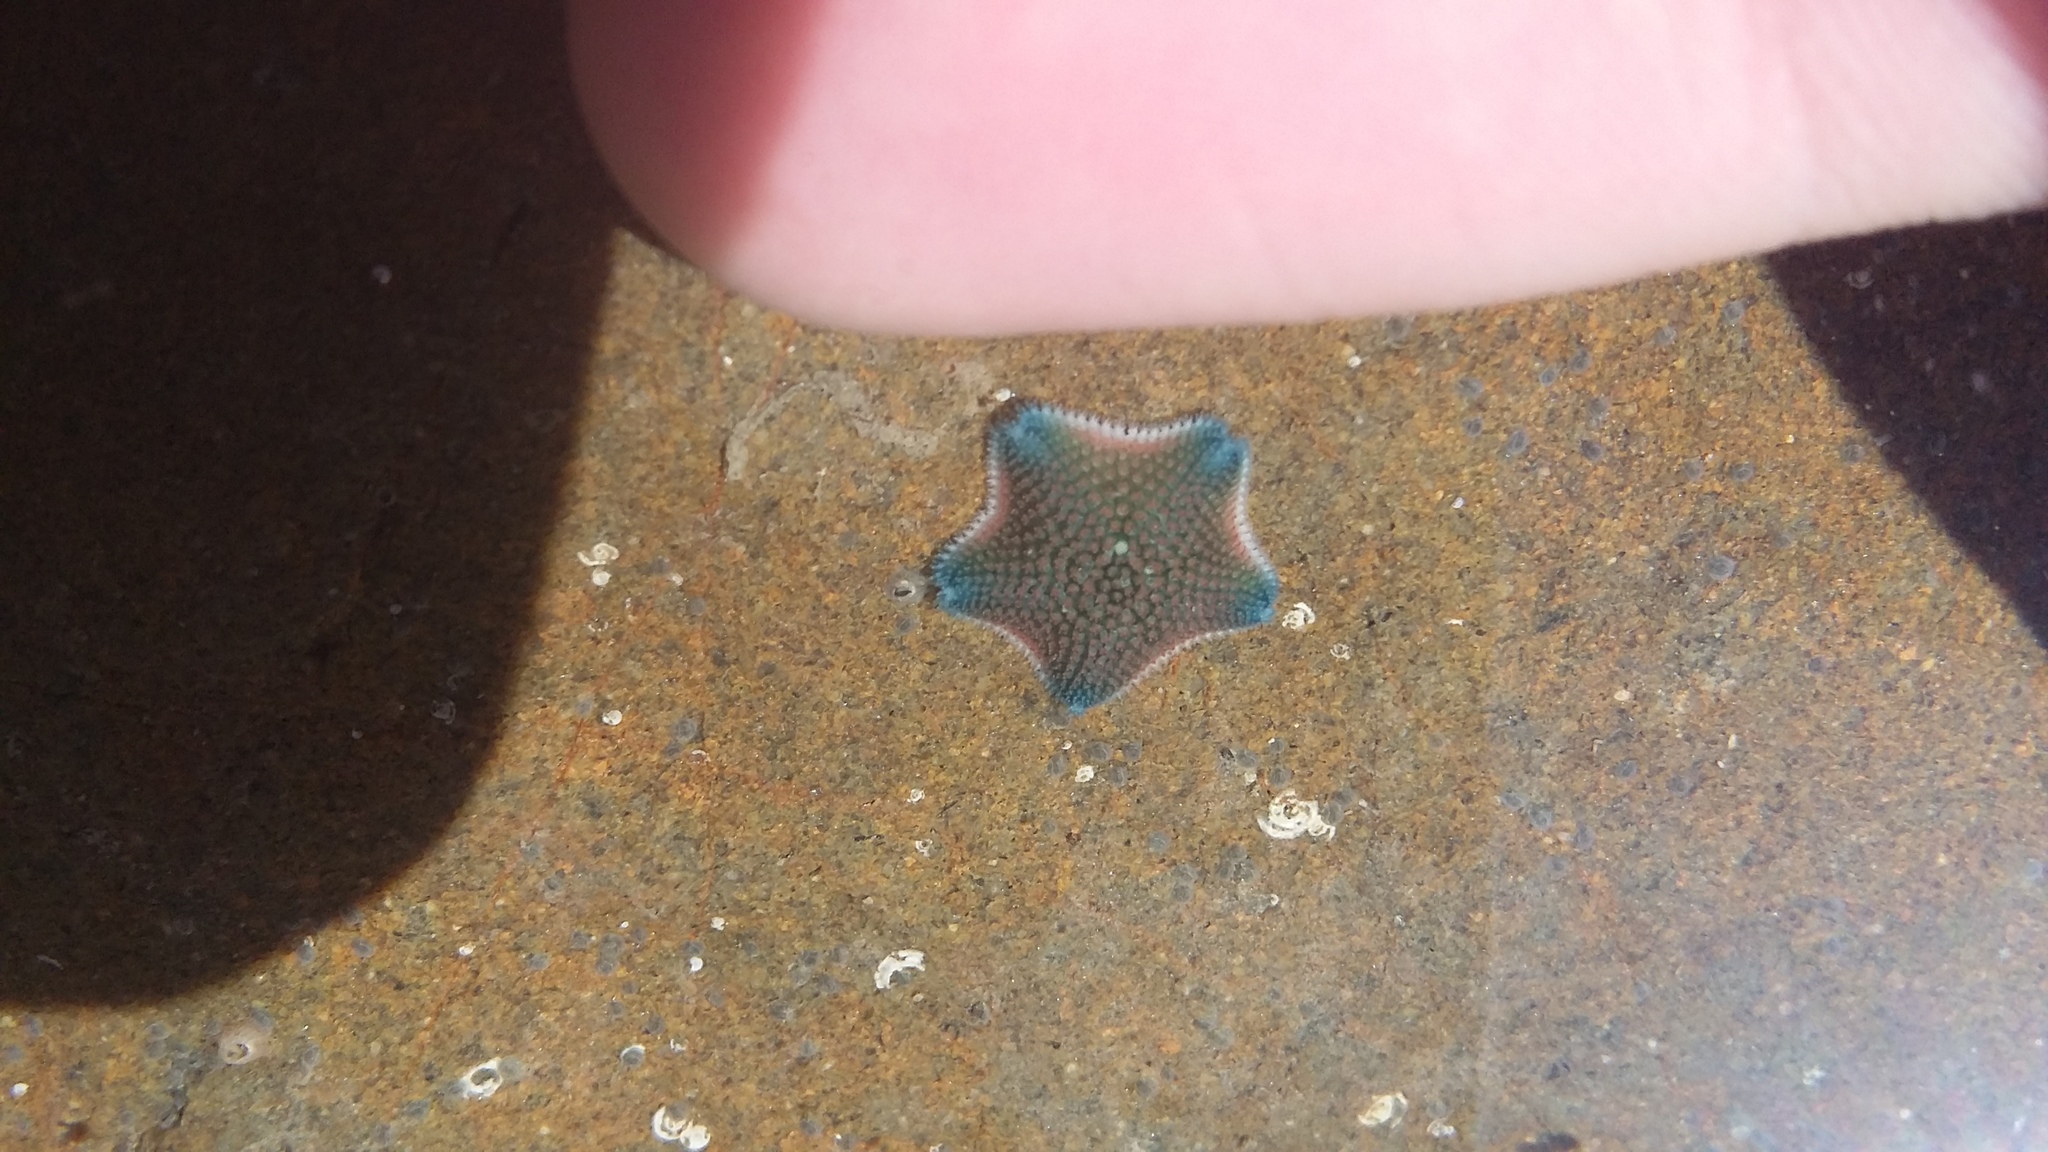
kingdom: Animalia
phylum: Echinodermata
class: Asteroidea
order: Valvatida
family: Asterinidae
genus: Patiriella
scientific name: Patiriella regularis
